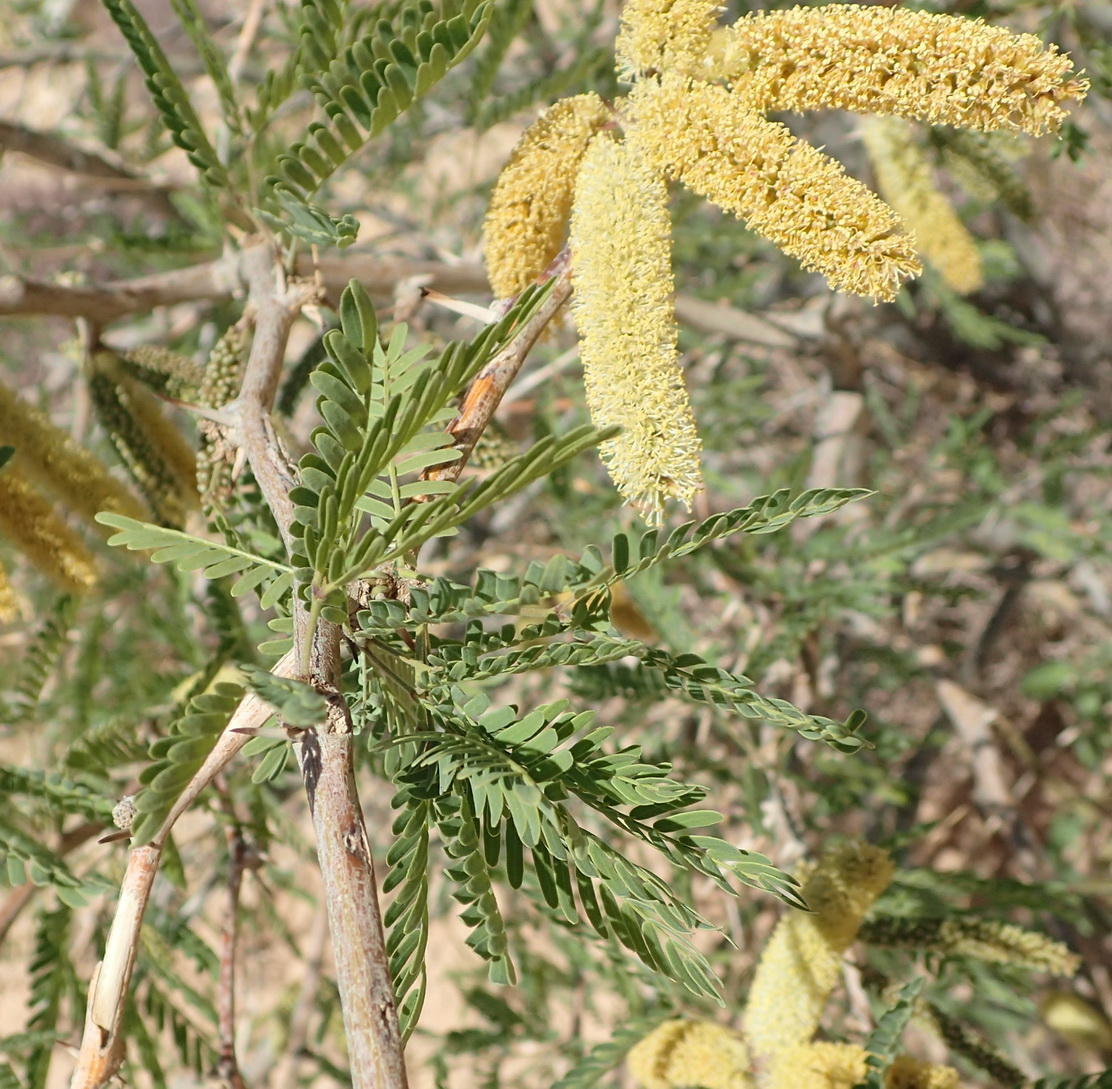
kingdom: Plantae
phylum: Tracheophyta
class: Magnoliopsida
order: Fabales
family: Fabaceae
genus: Prosopis
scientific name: Prosopis velutina
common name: Velvet mesquite
